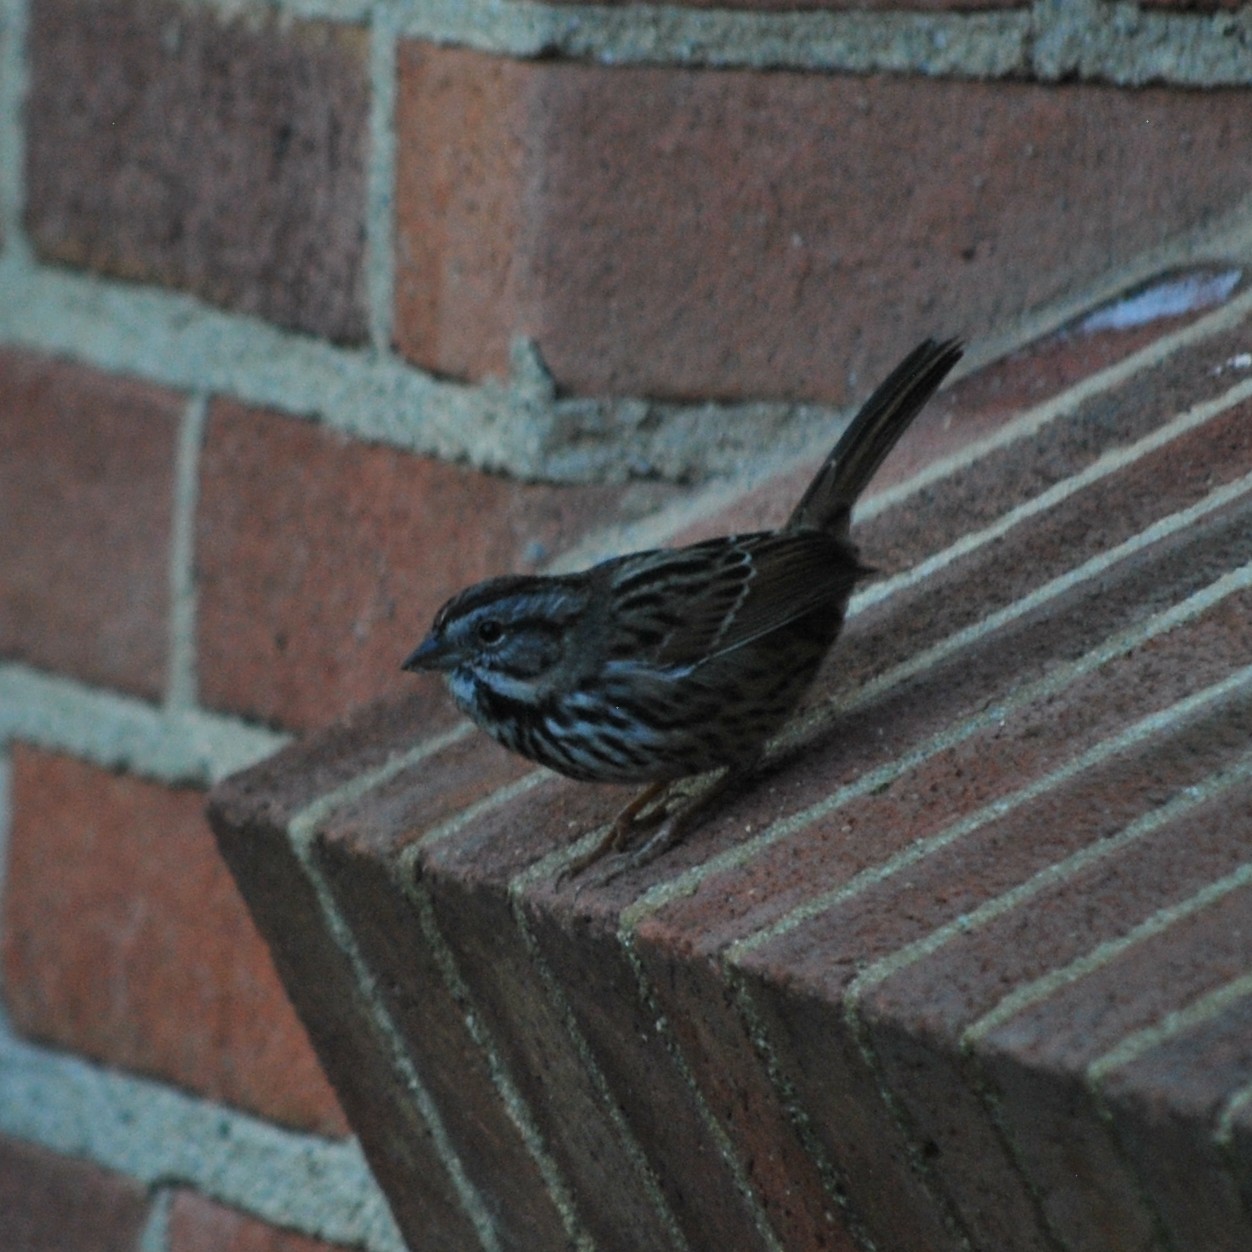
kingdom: Animalia
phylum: Chordata
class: Aves
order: Passeriformes
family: Passerellidae
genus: Melospiza
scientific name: Melospiza melodia
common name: Song sparrow
